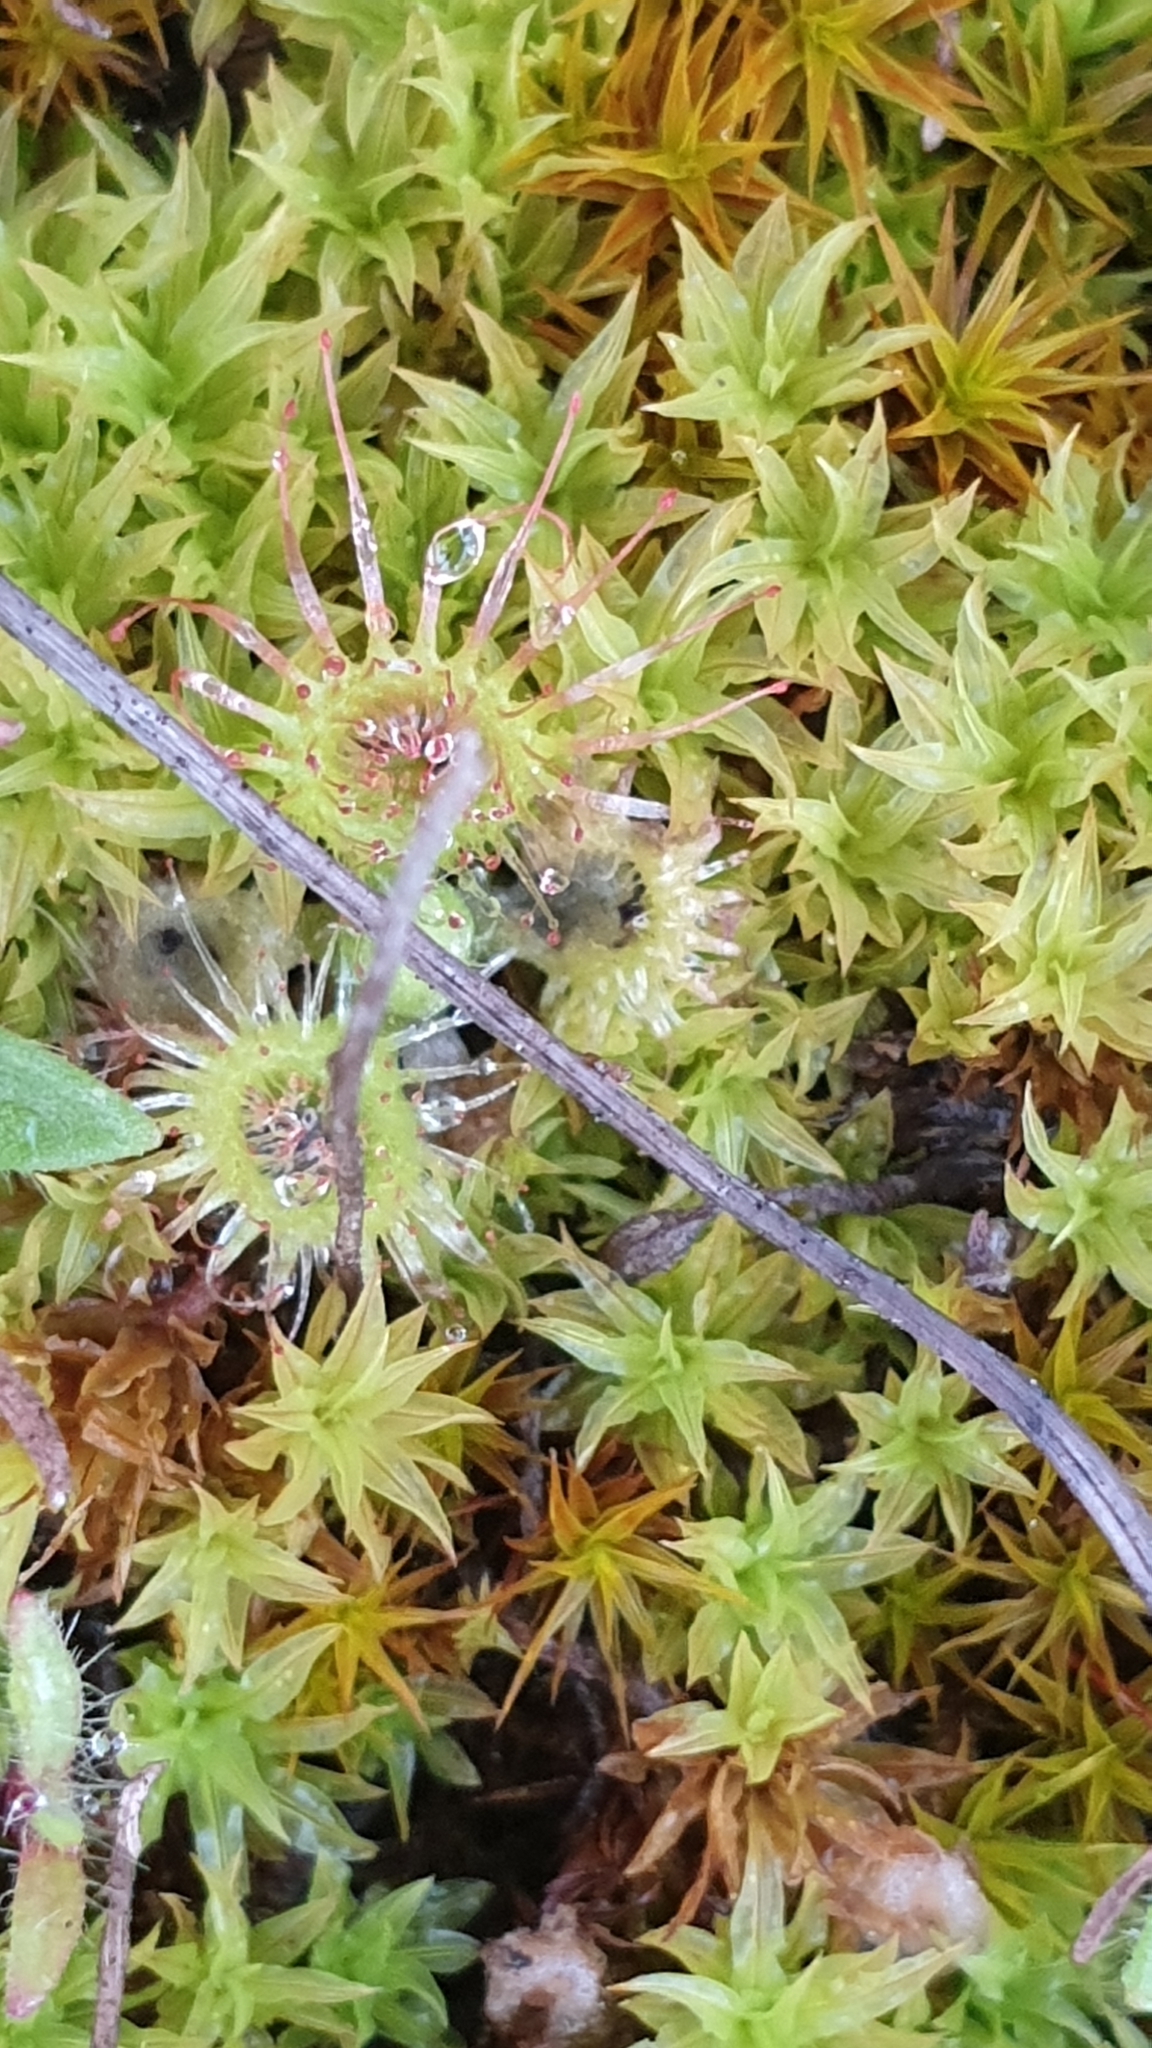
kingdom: Plantae
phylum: Tracheophyta
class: Magnoliopsida
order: Caryophyllales
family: Droseraceae
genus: Drosera
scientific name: Drosera glanduligera
